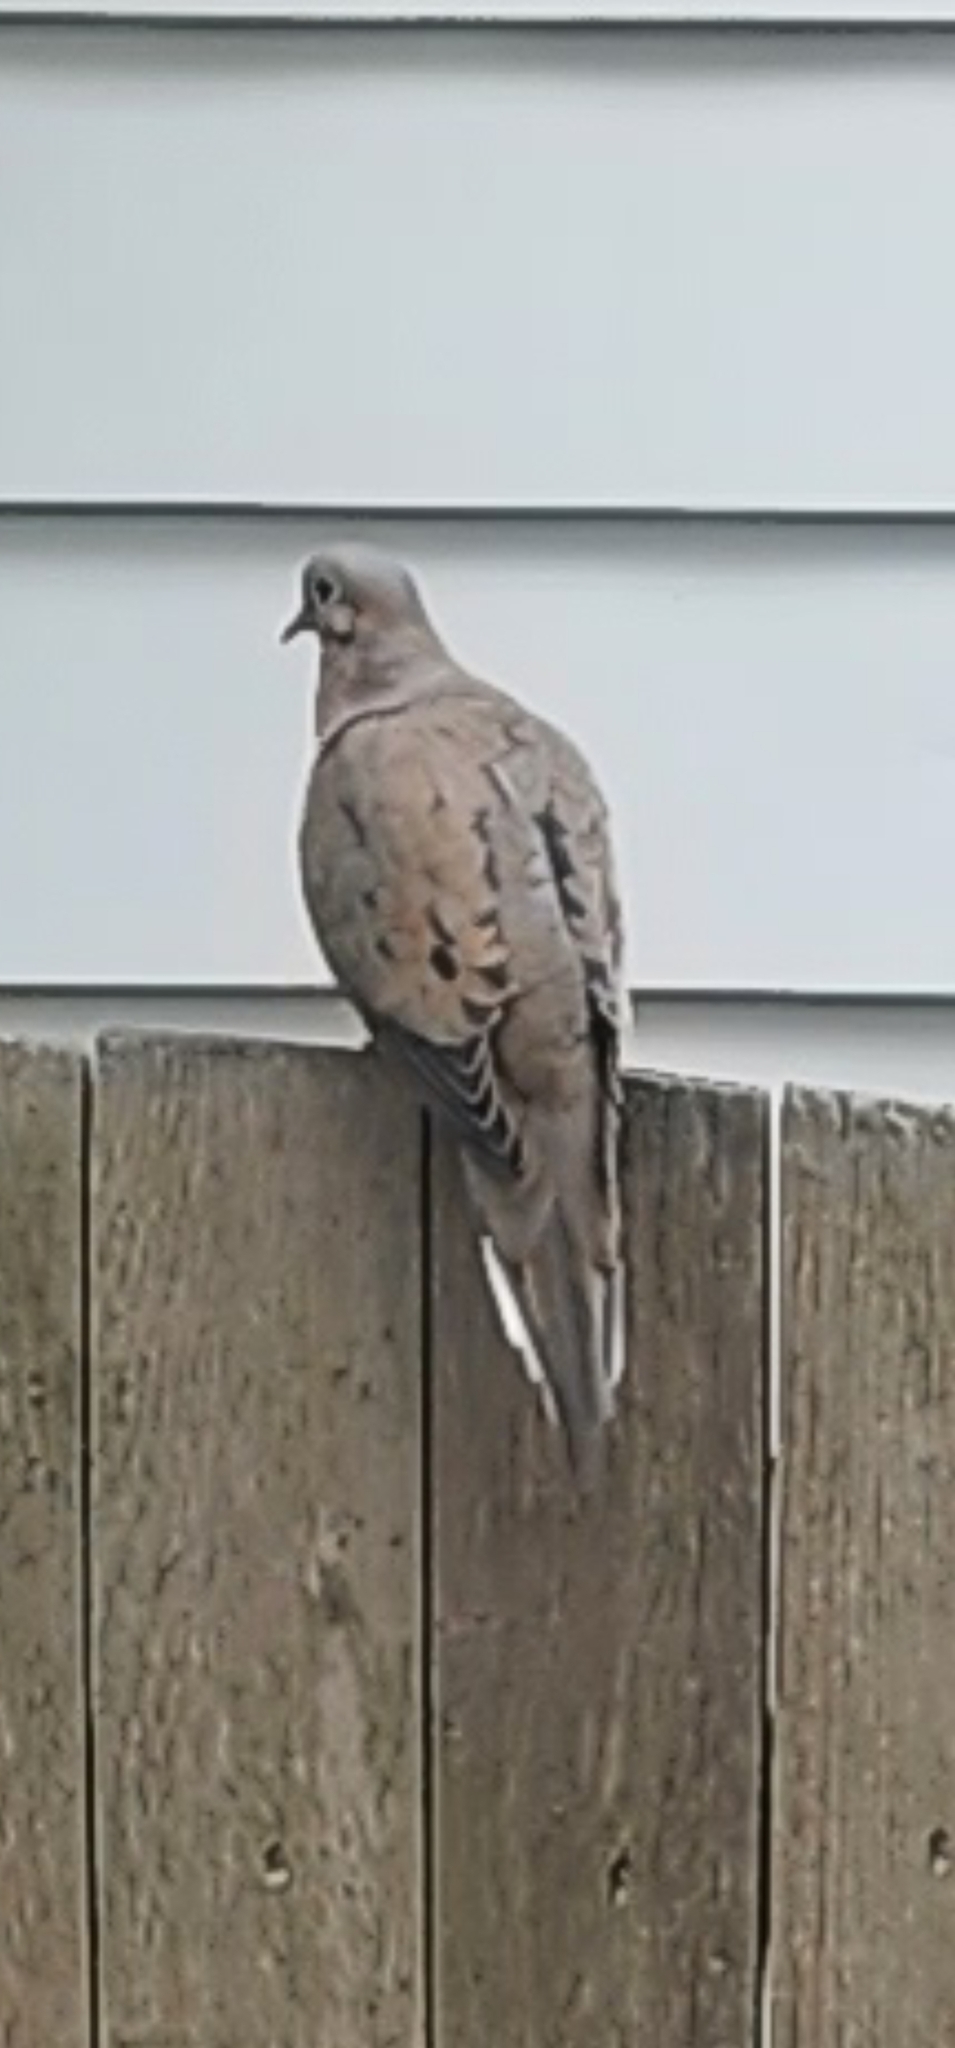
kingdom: Animalia
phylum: Chordata
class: Aves
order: Columbiformes
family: Columbidae
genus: Zenaida
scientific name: Zenaida macroura
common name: Mourning dove
